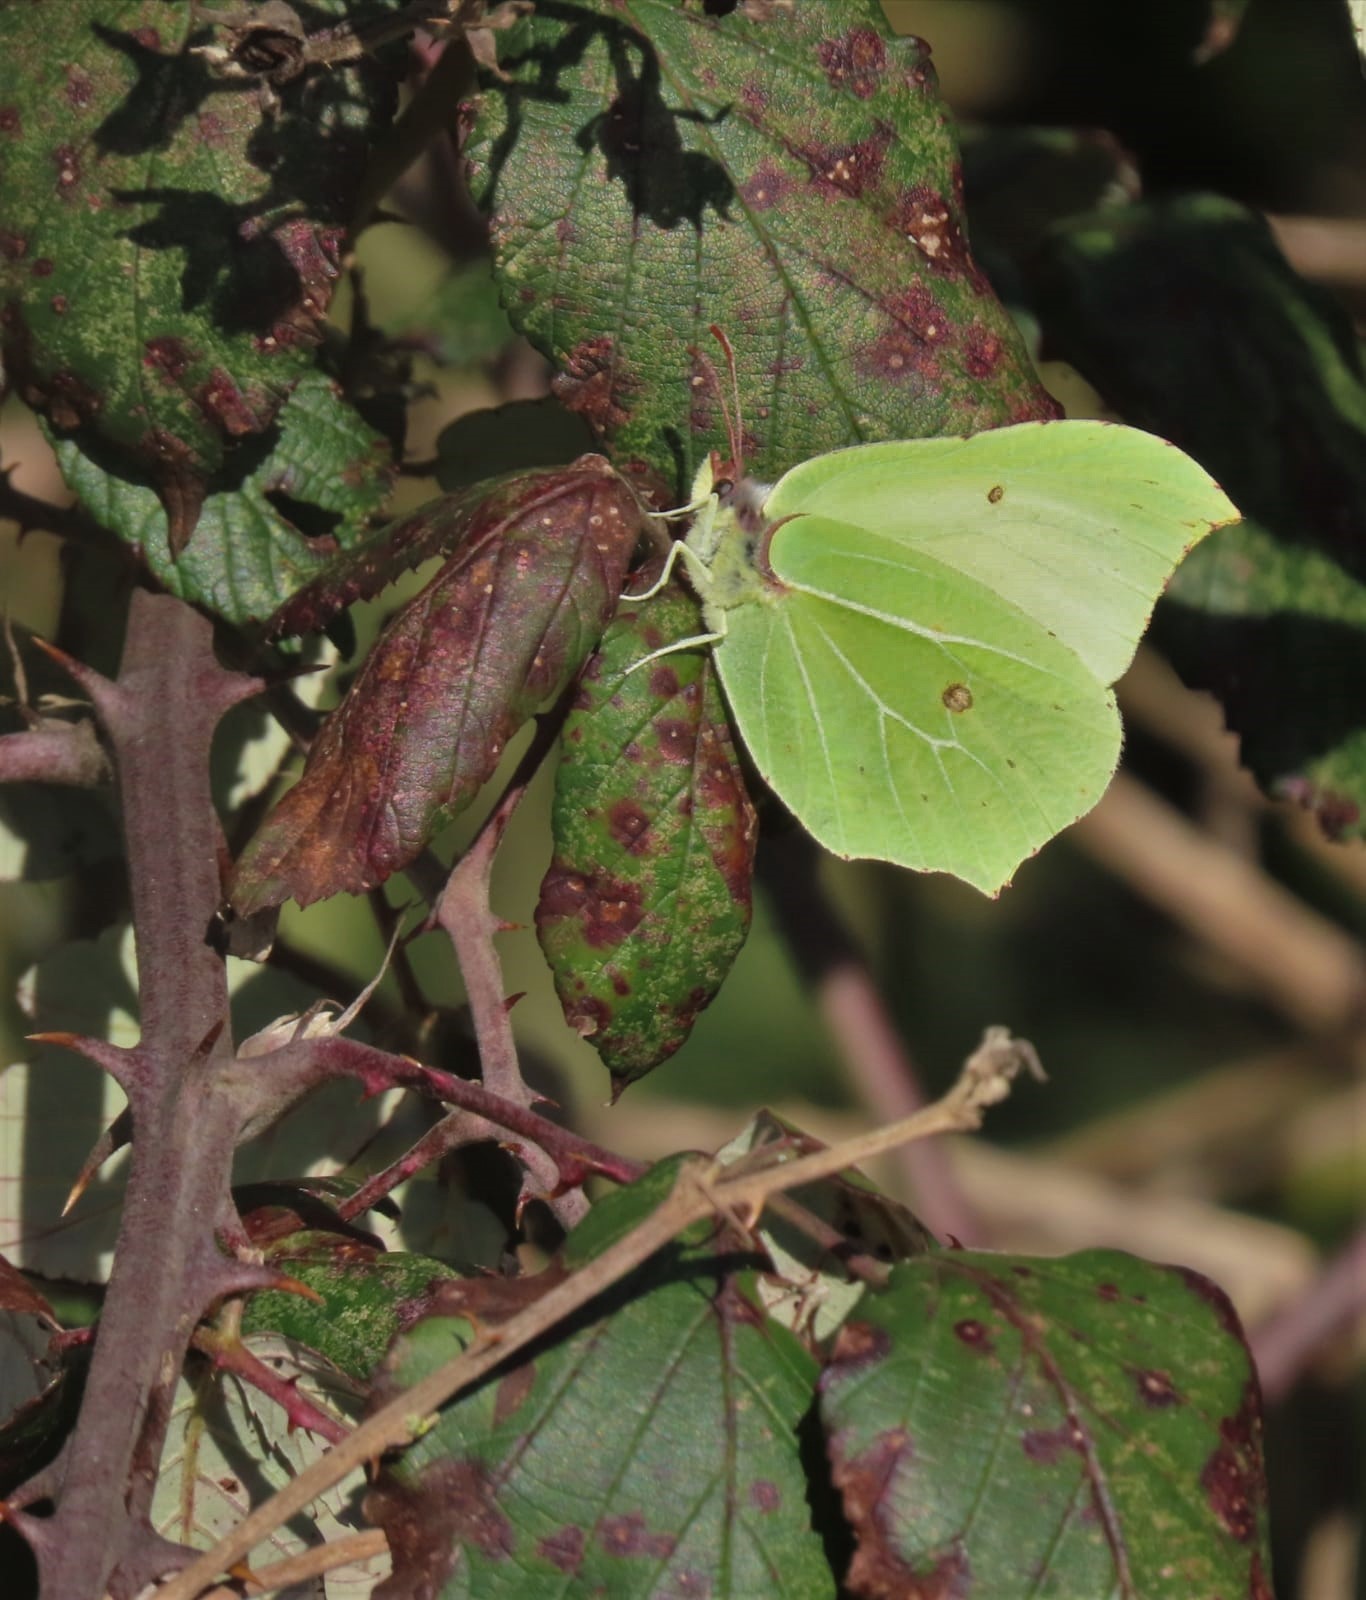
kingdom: Animalia
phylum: Arthropoda
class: Insecta
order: Lepidoptera
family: Pieridae
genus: Gonepteryx
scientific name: Gonepteryx rhamni
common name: Brimstone
